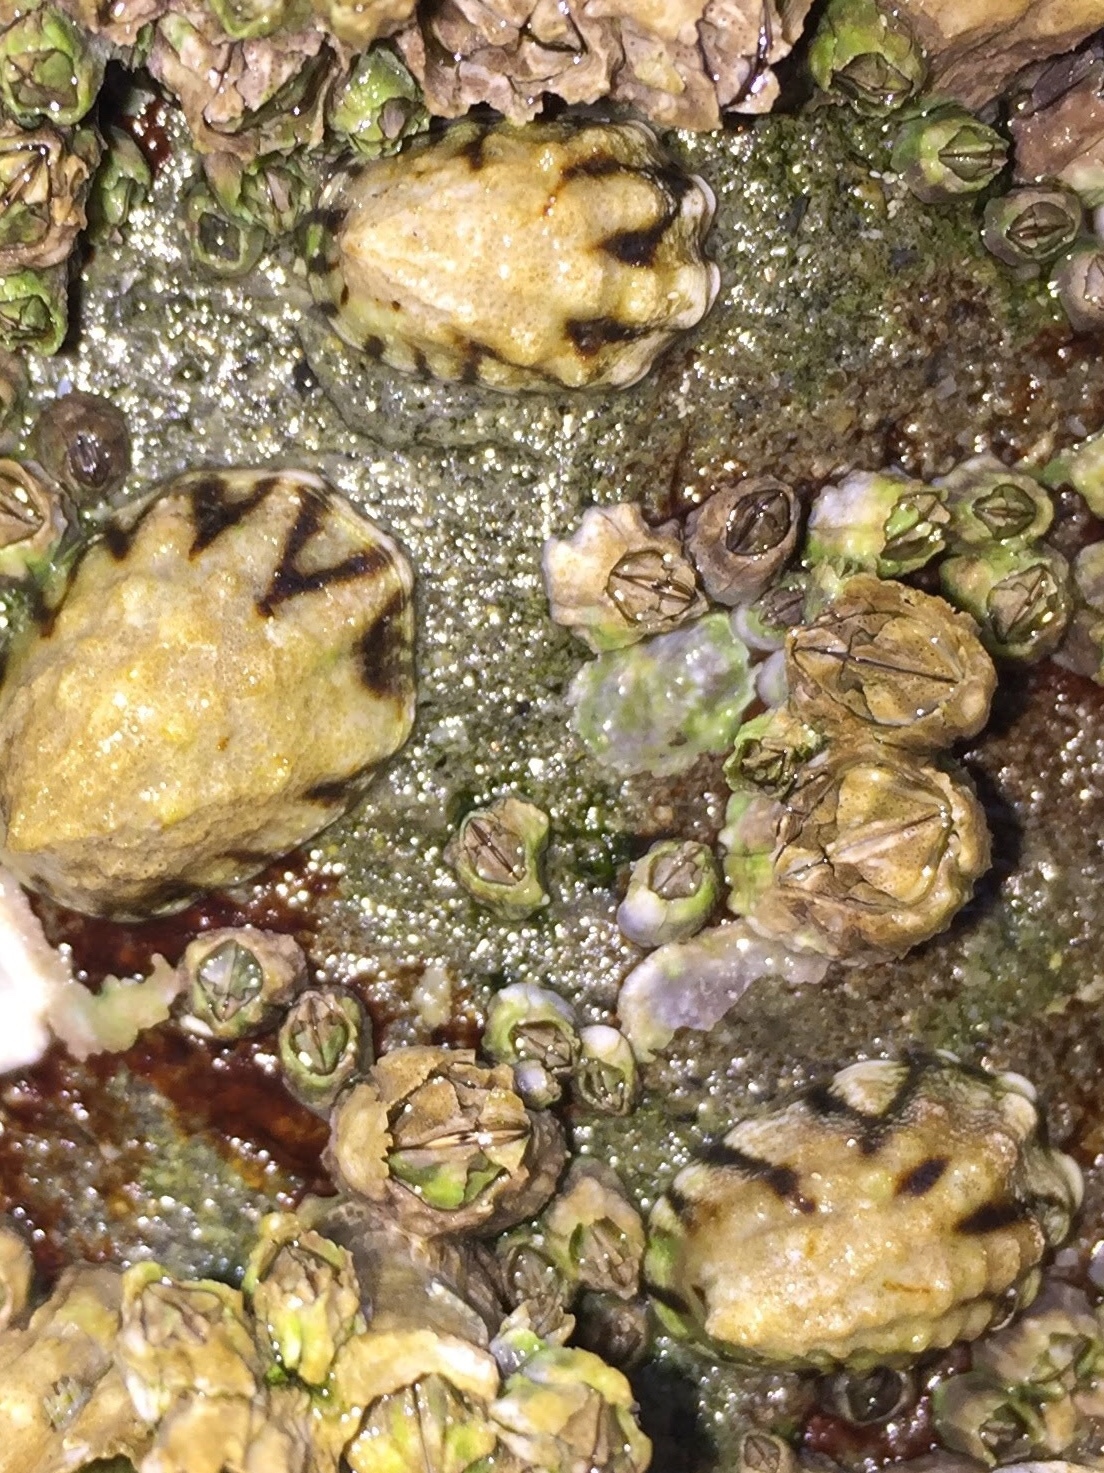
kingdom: Animalia
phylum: Mollusca
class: Gastropoda
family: Lottiidae
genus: Lottia
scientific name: Lottia digitalis
